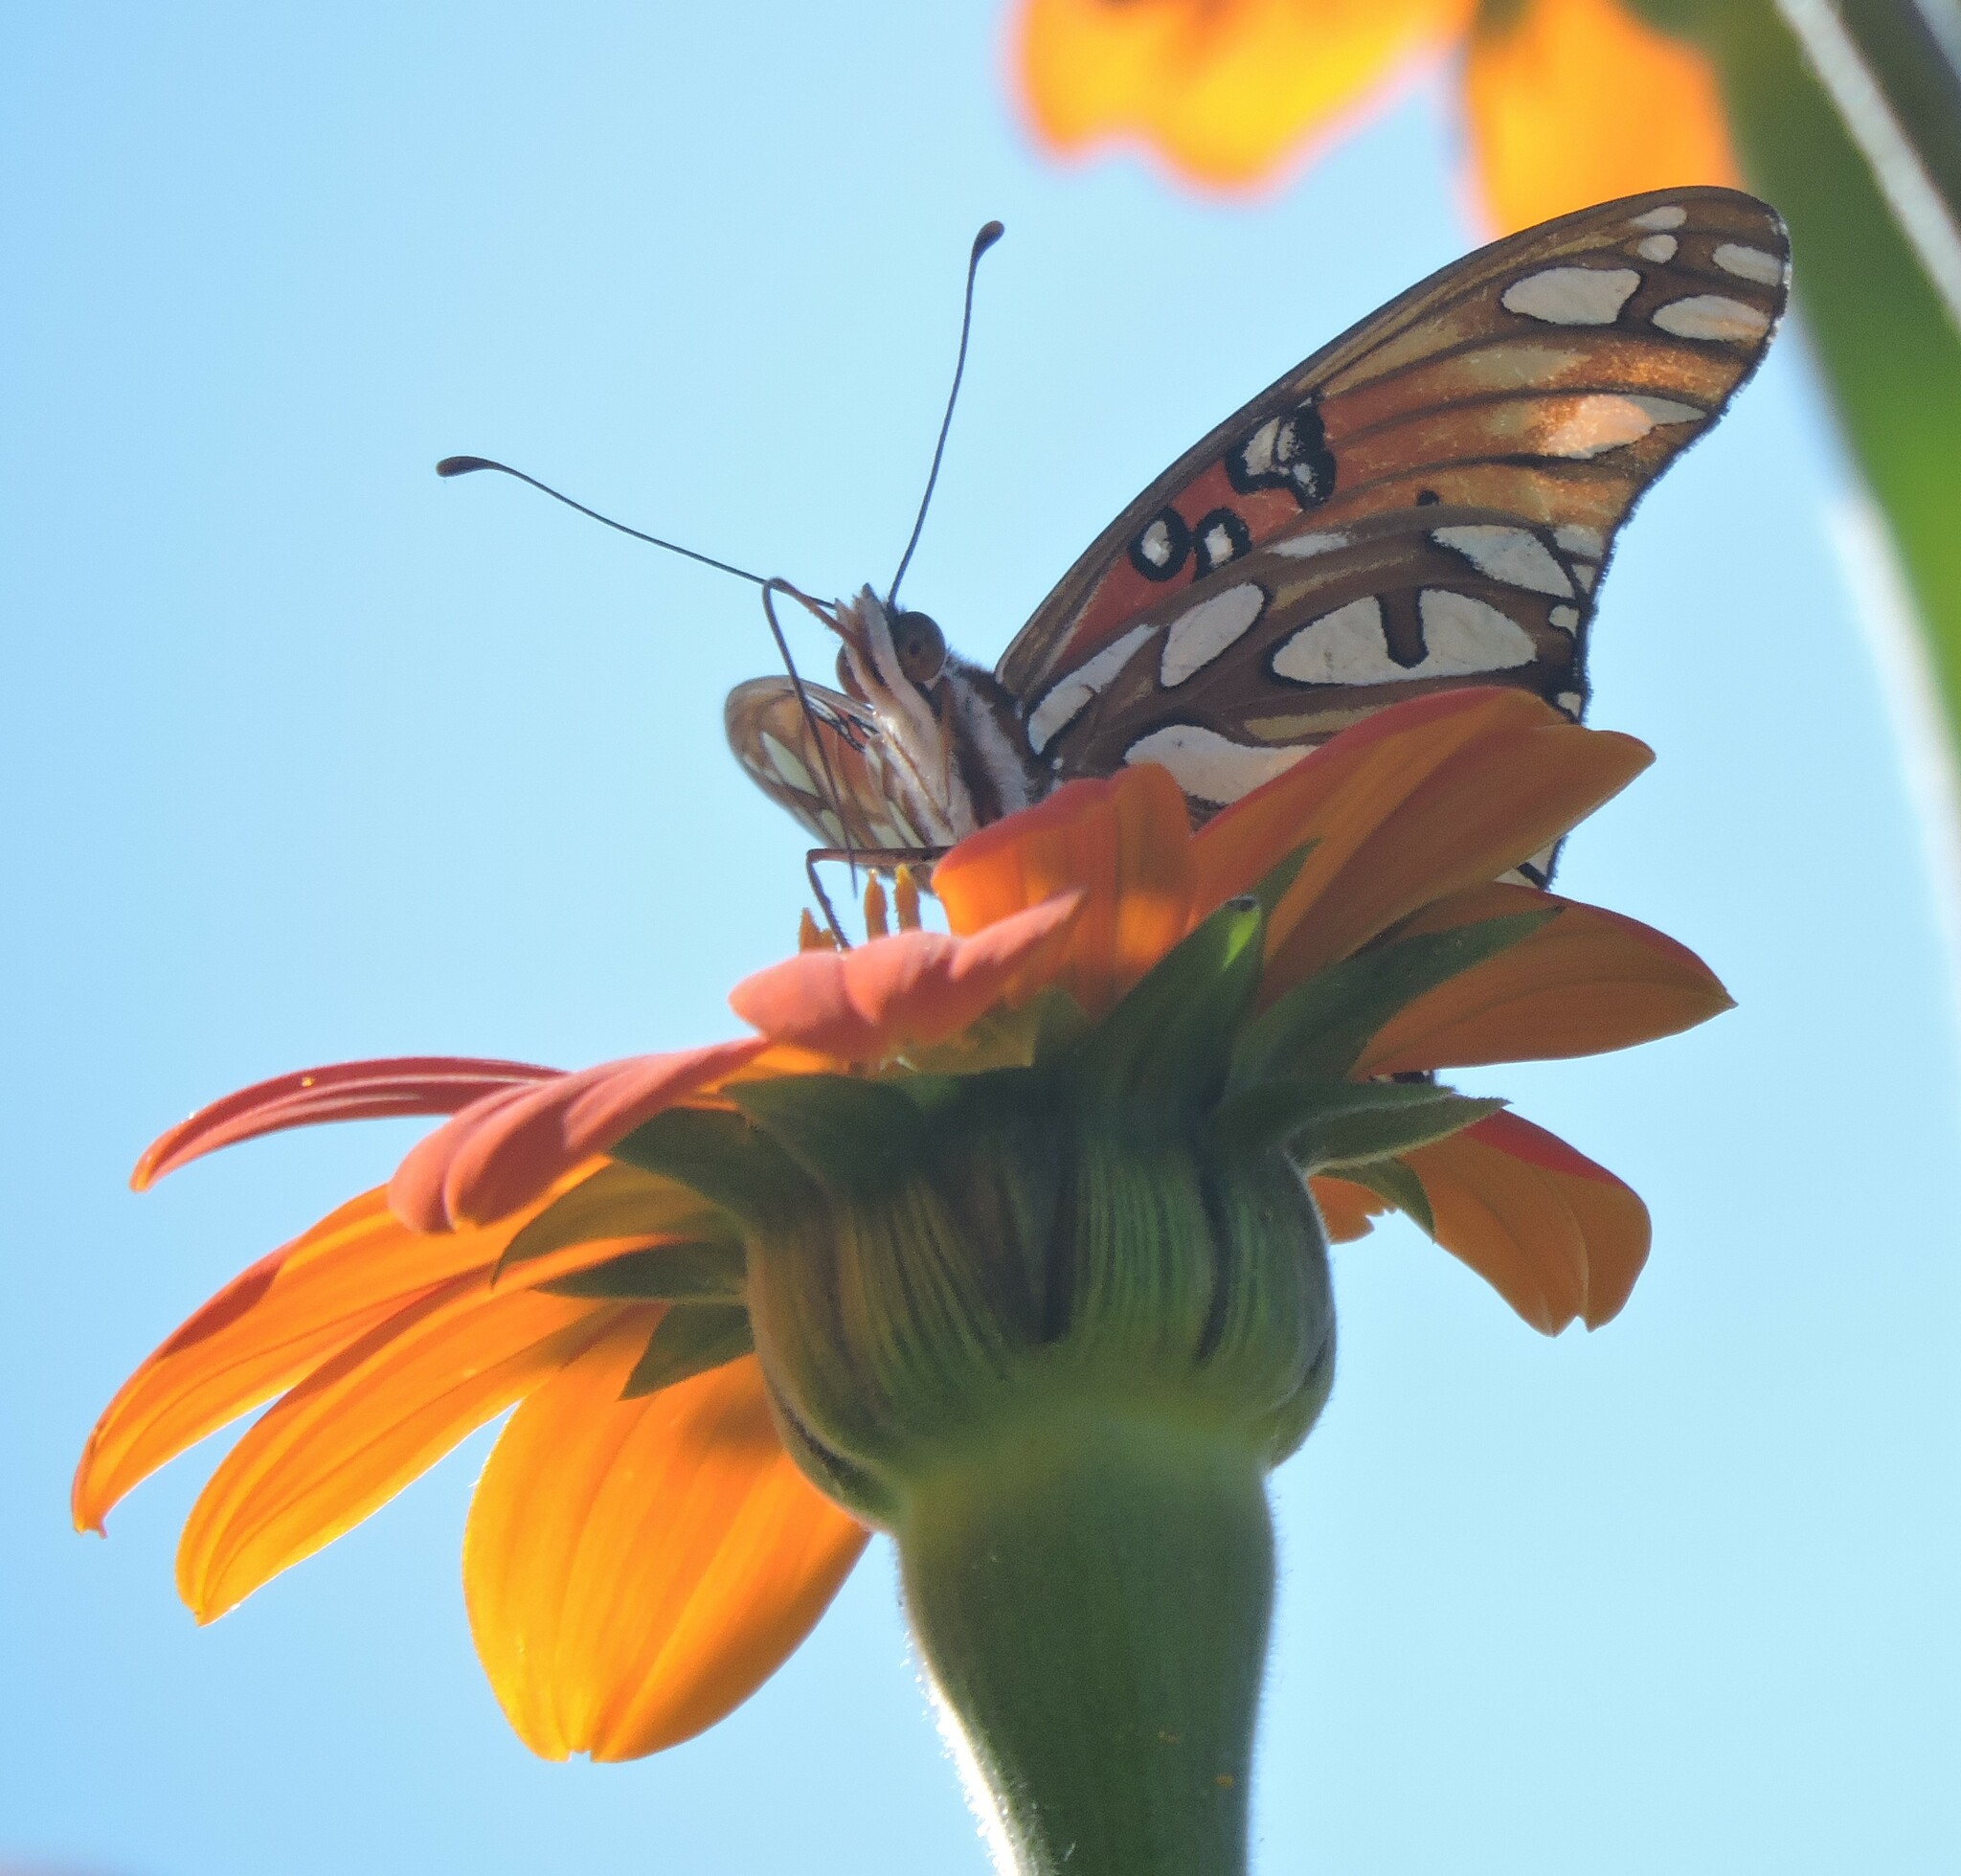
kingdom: Animalia
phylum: Arthropoda
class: Insecta
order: Lepidoptera
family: Nymphalidae
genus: Dione
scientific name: Dione vanillae
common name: Gulf fritillary
